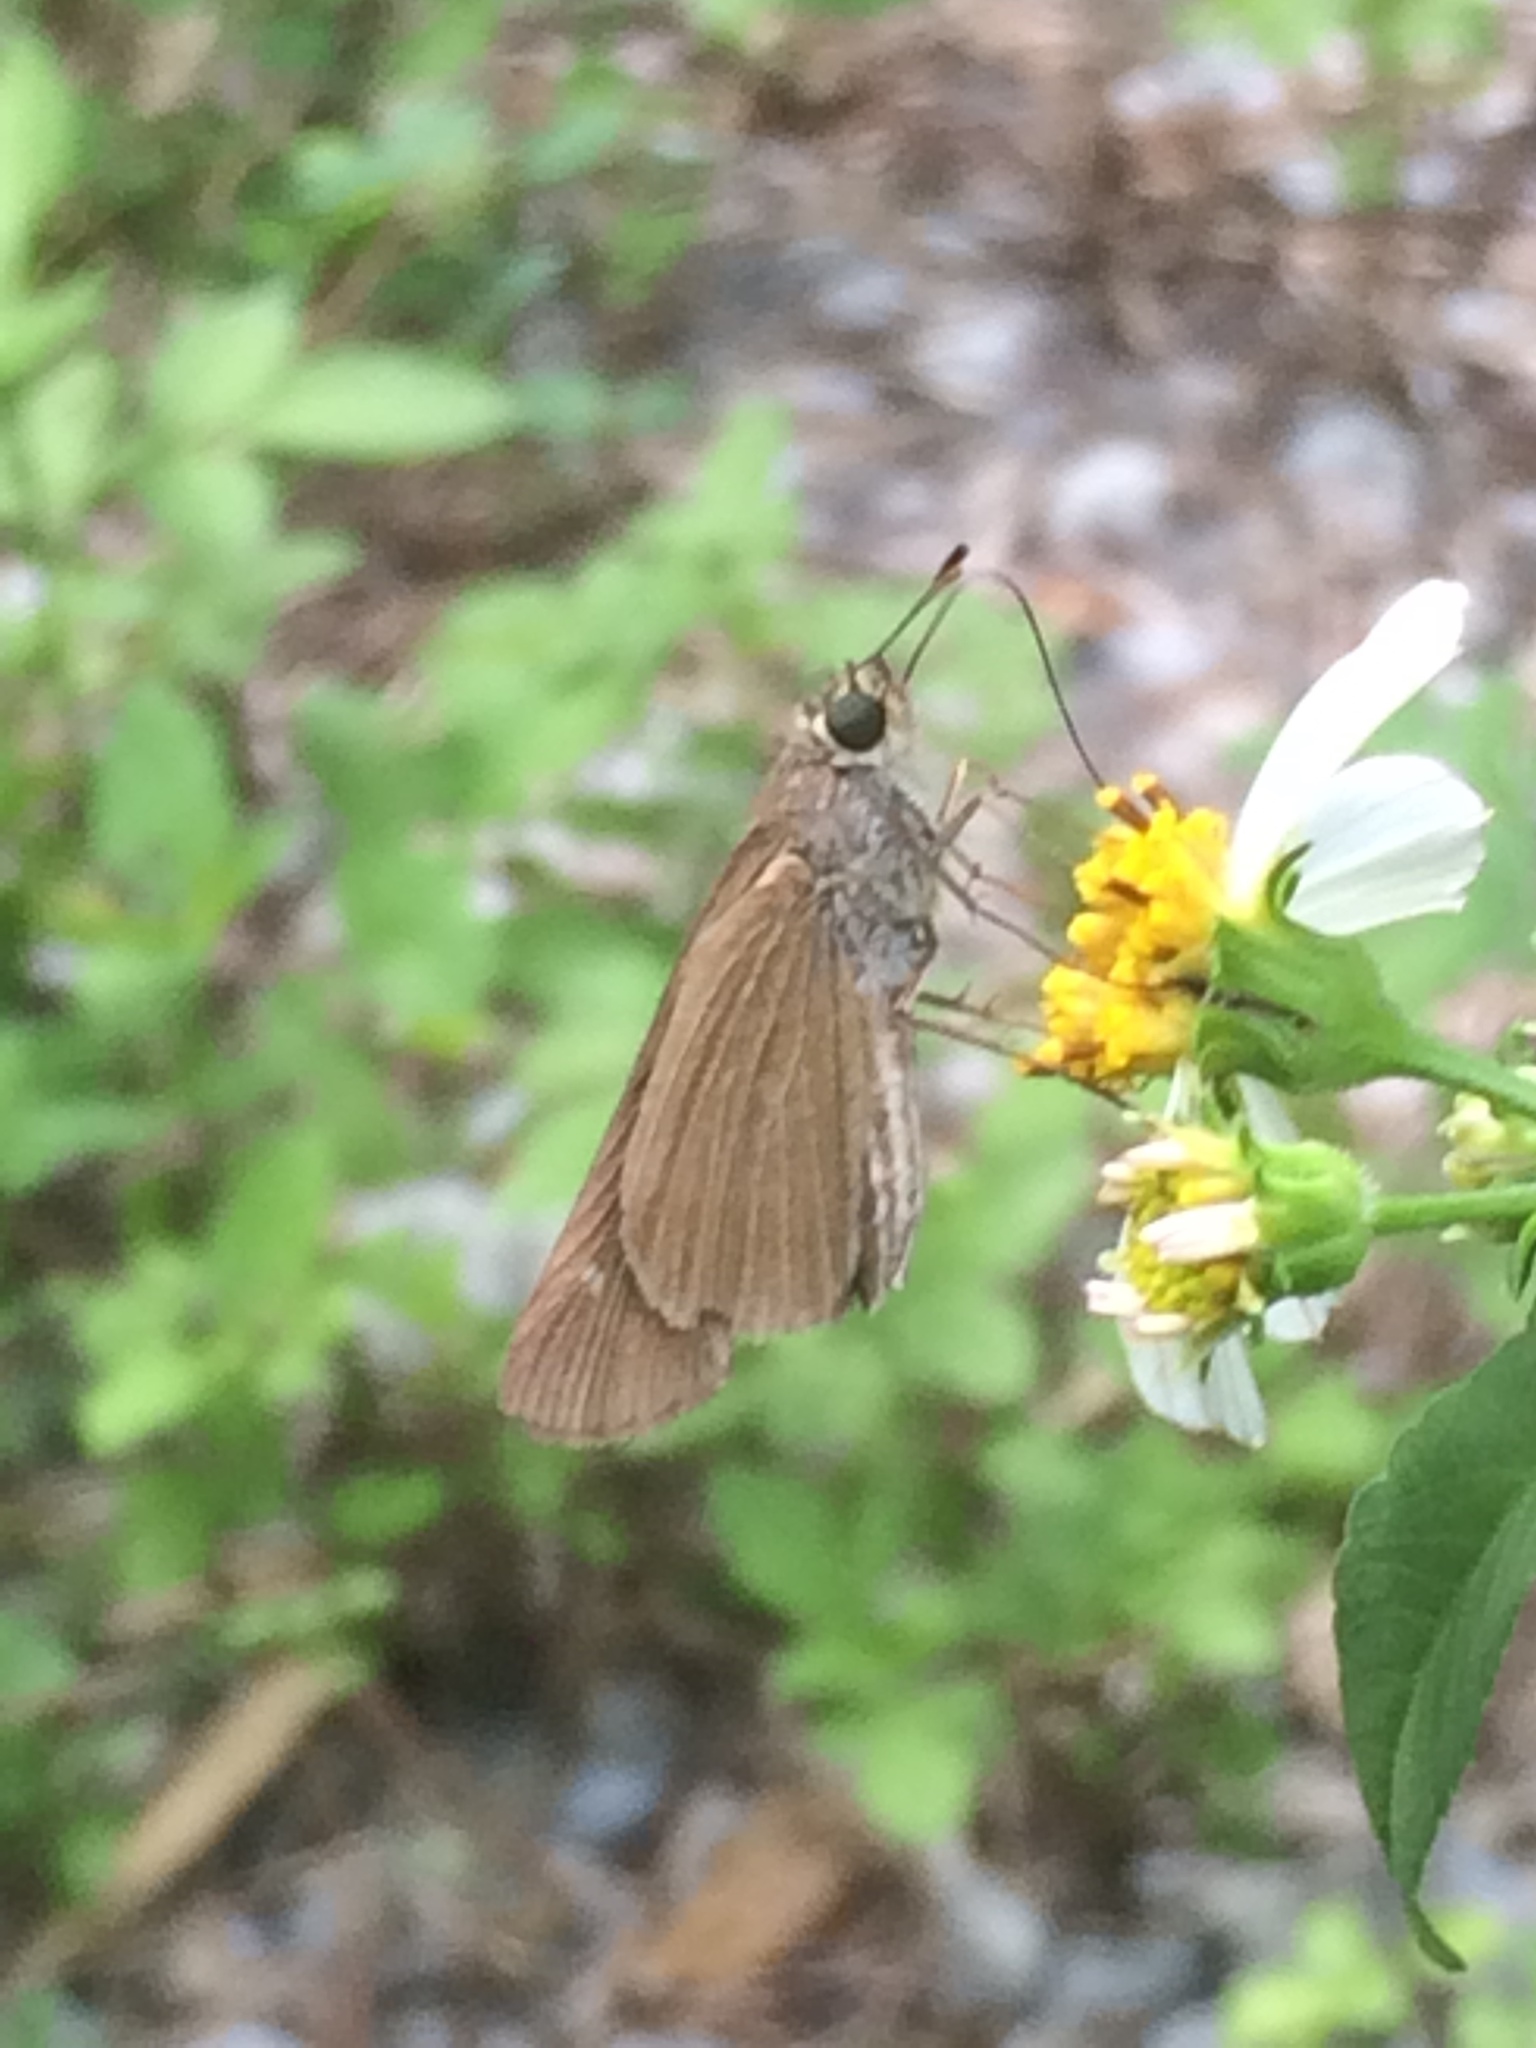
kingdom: Animalia
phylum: Arthropoda
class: Insecta
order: Lepidoptera
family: Hesperiidae
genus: Panoquina
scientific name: Panoquina ocola
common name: Ocola skipper
